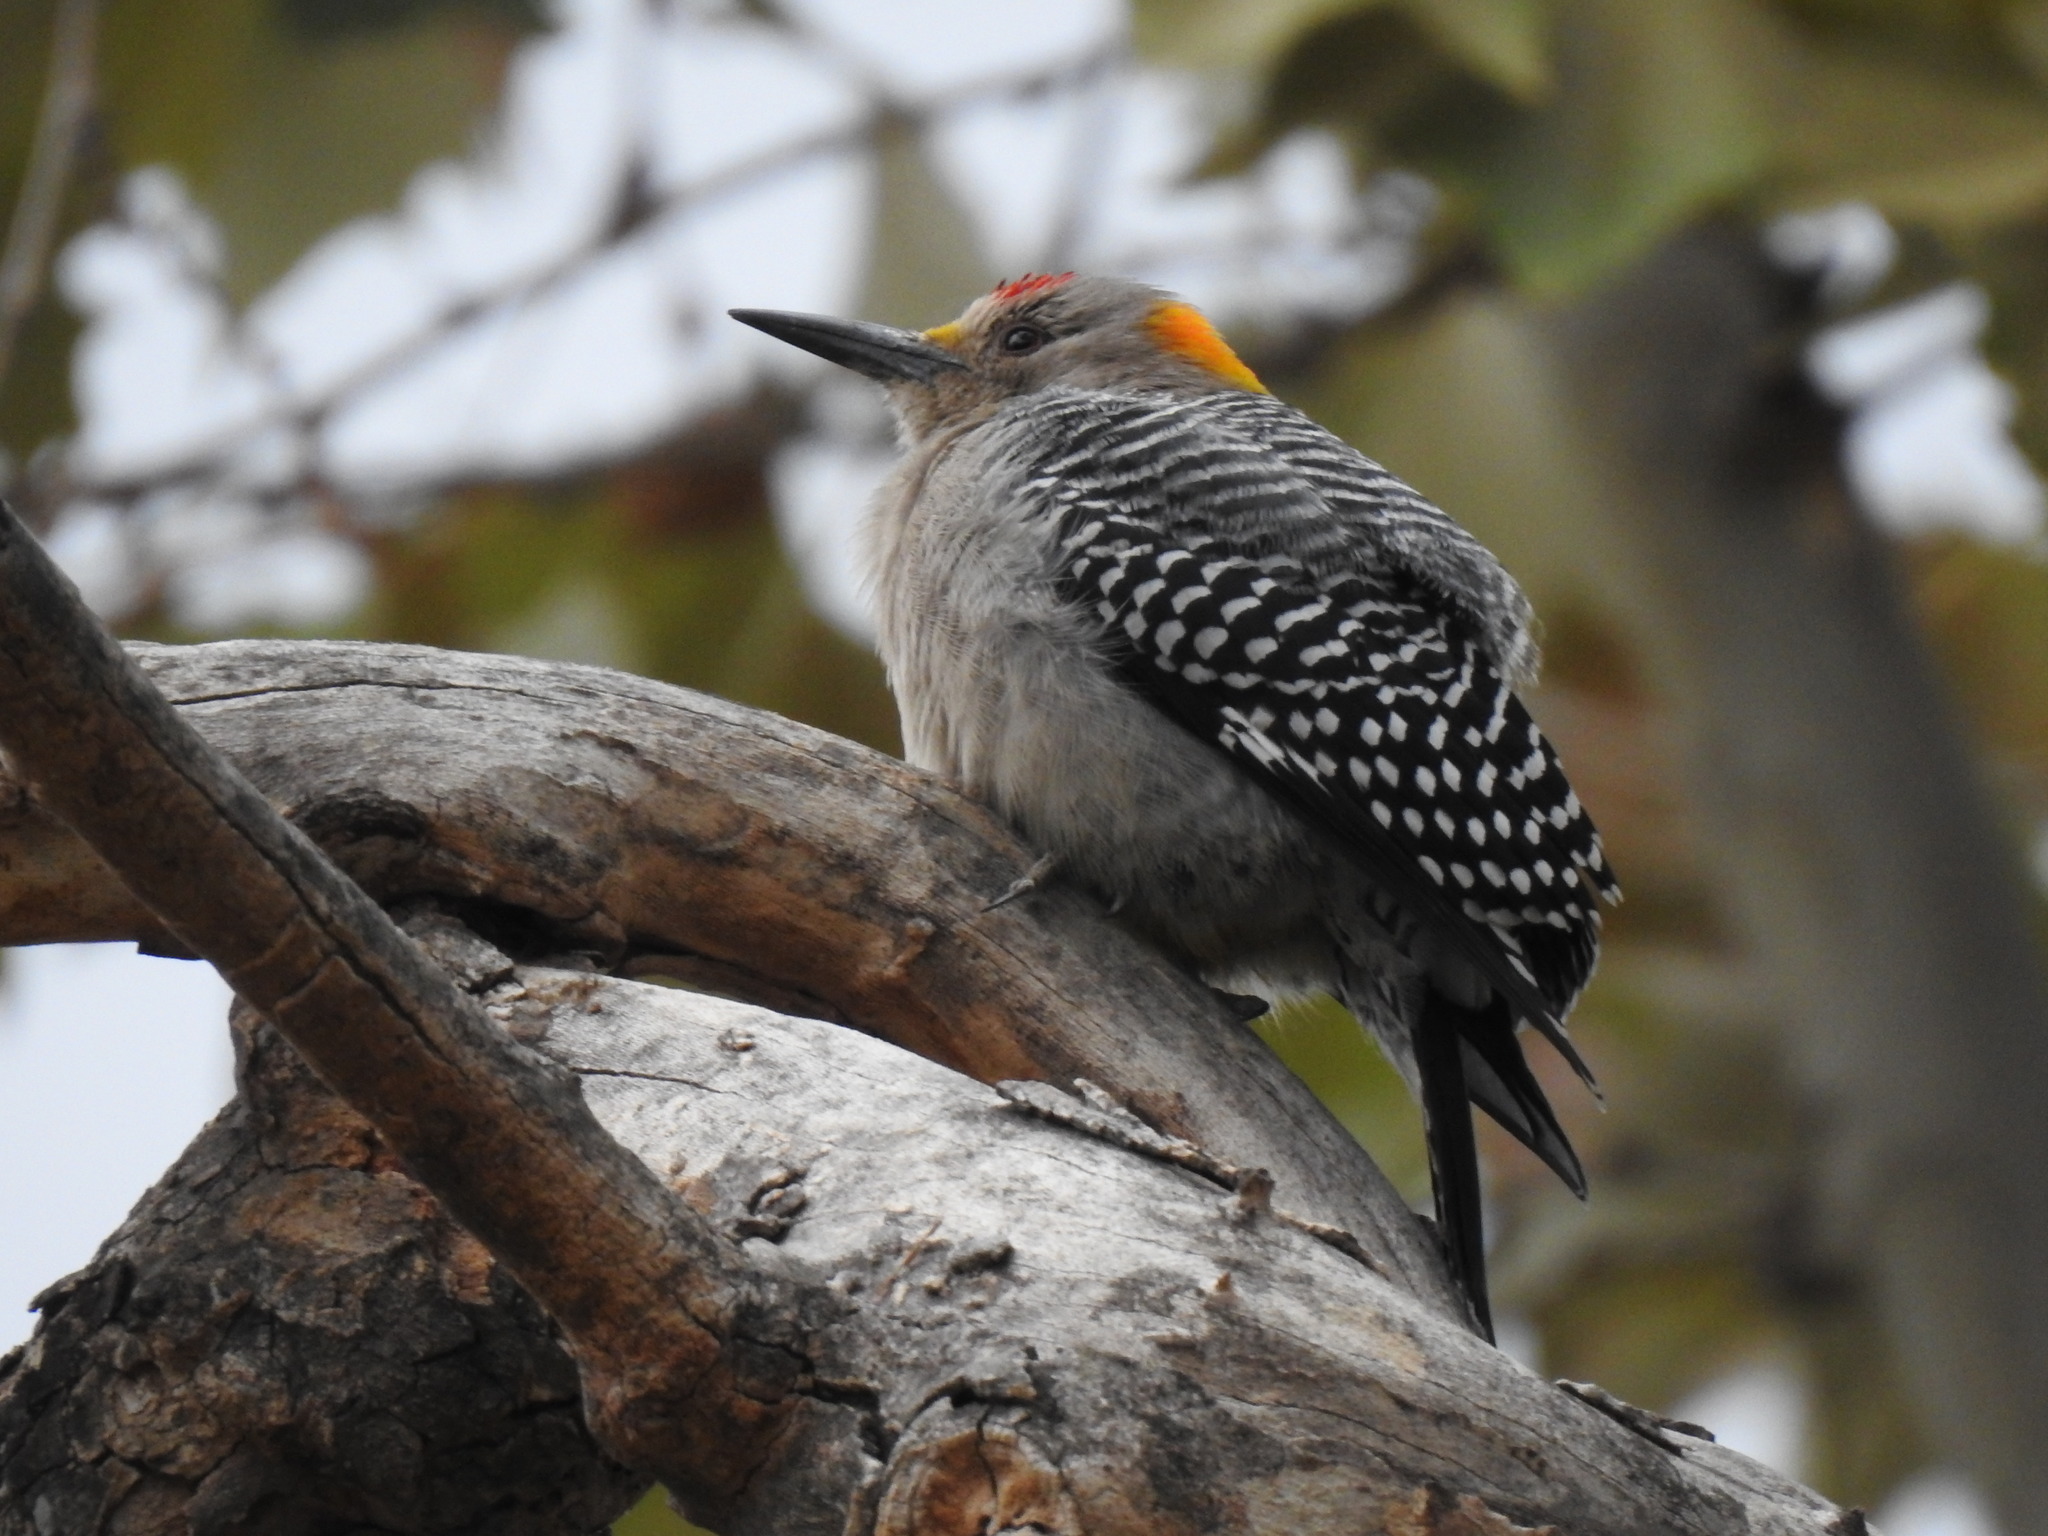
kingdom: Animalia
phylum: Chordata
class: Aves
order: Piciformes
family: Picidae
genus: Melanerpes
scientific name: Melanerpes aurifrons
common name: Golden-fronted woodpecker
